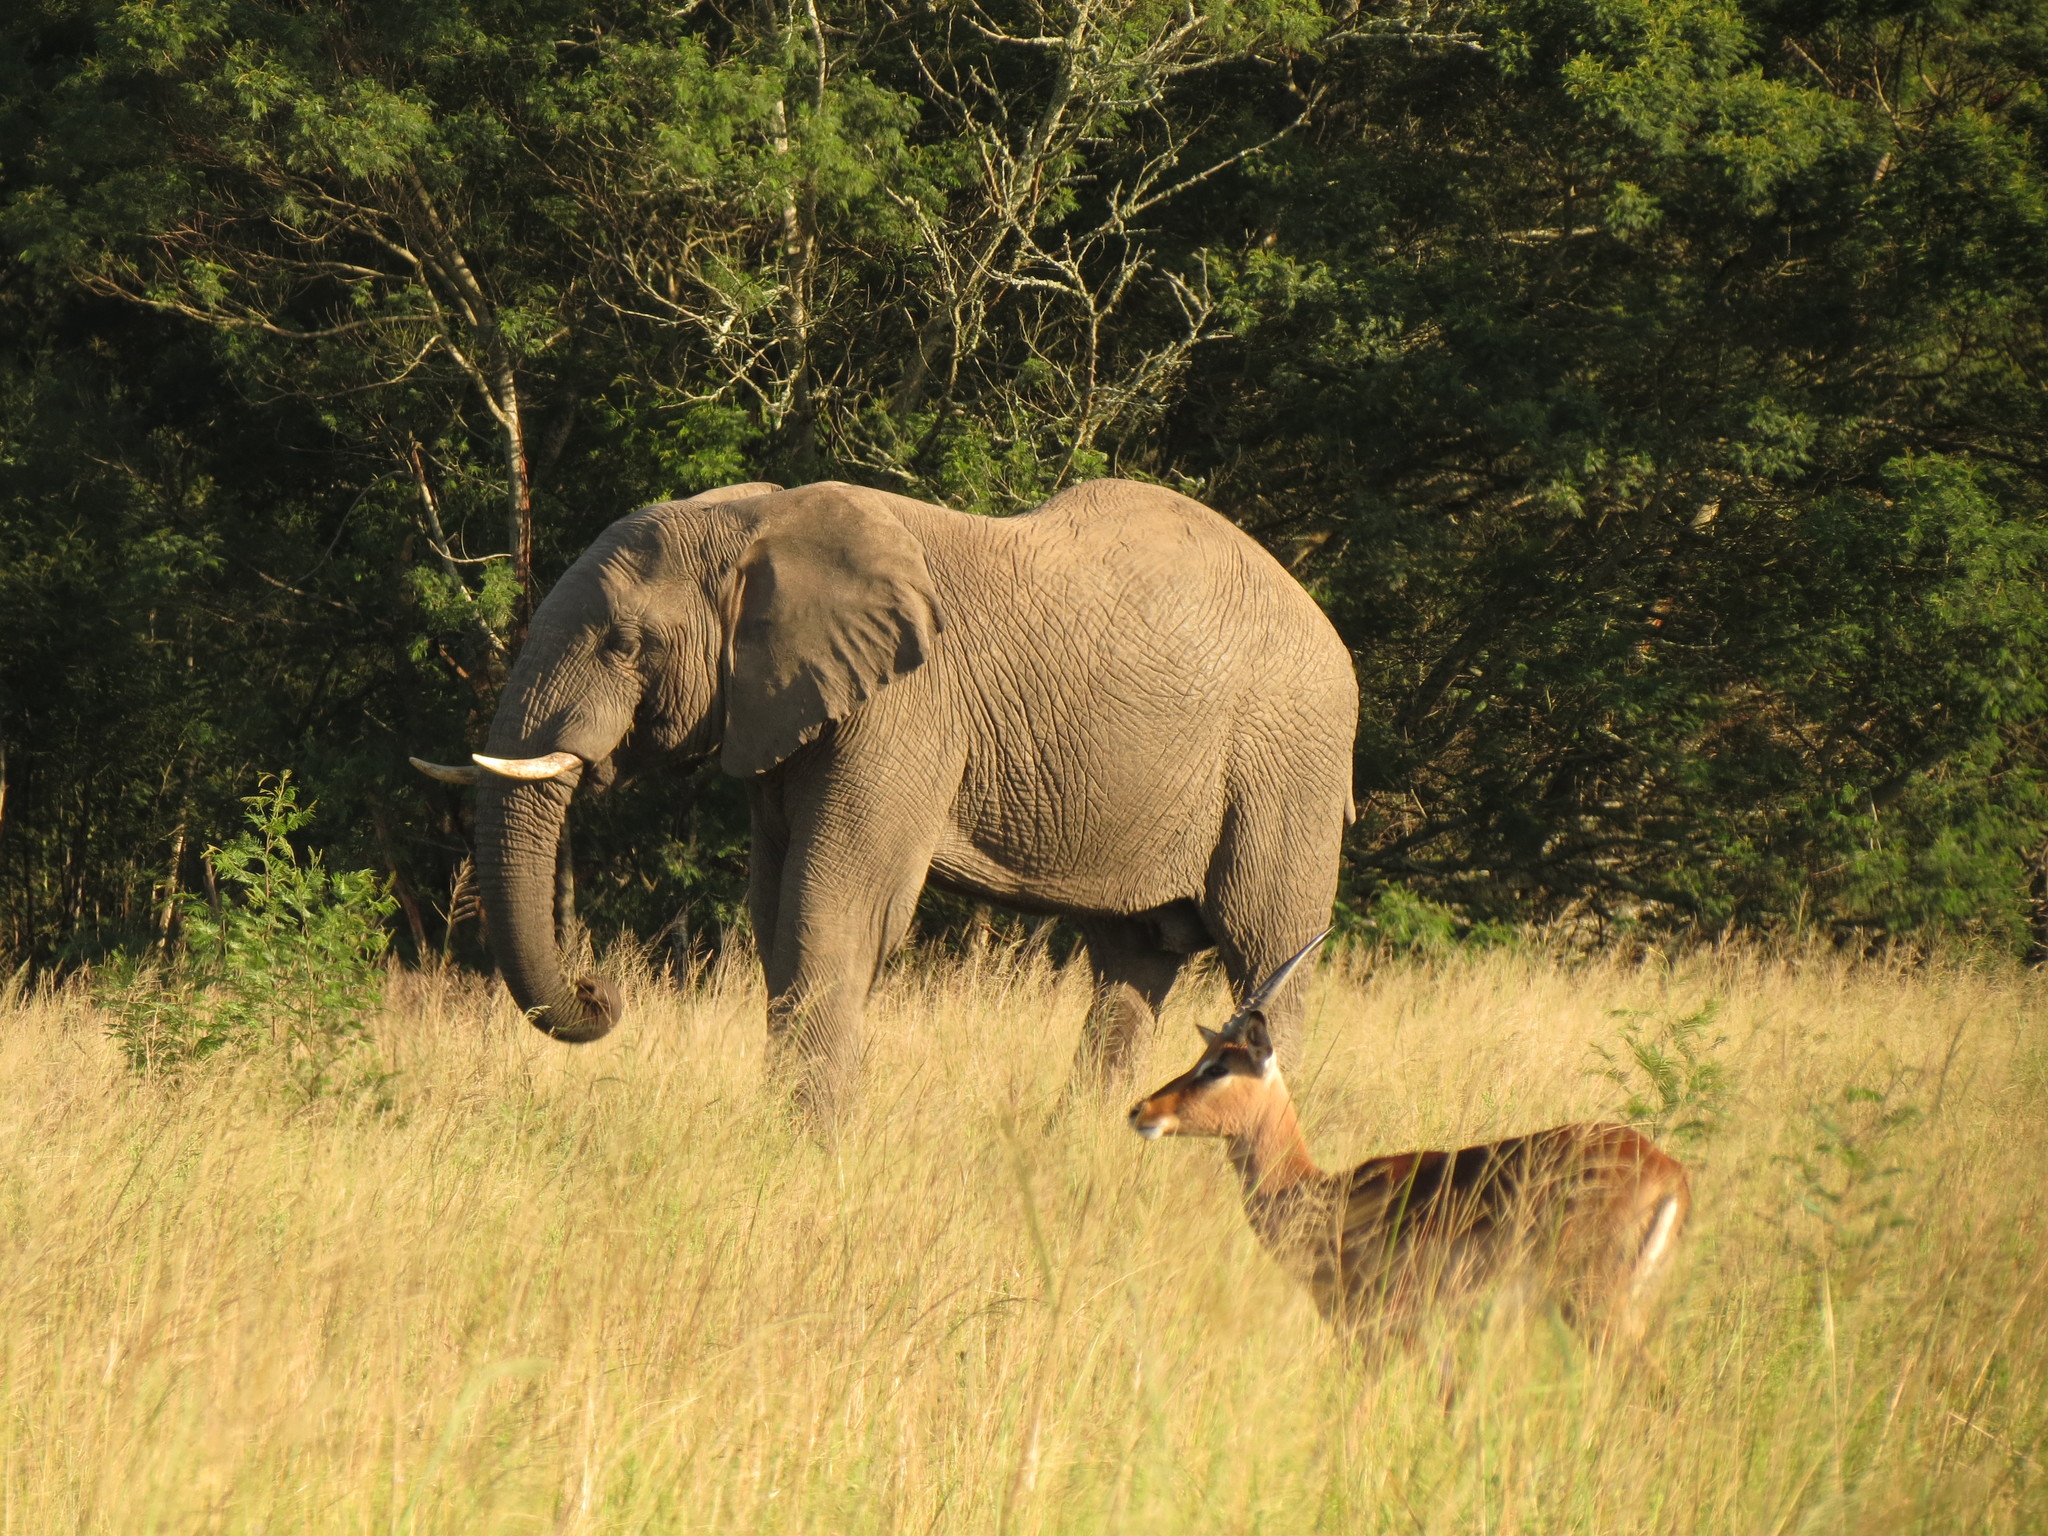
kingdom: Animalia
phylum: Chordata
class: Mammalia
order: Artiodactyla
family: Bovidae
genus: Aepyceros
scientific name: Aepyceros melampus
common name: Impala
